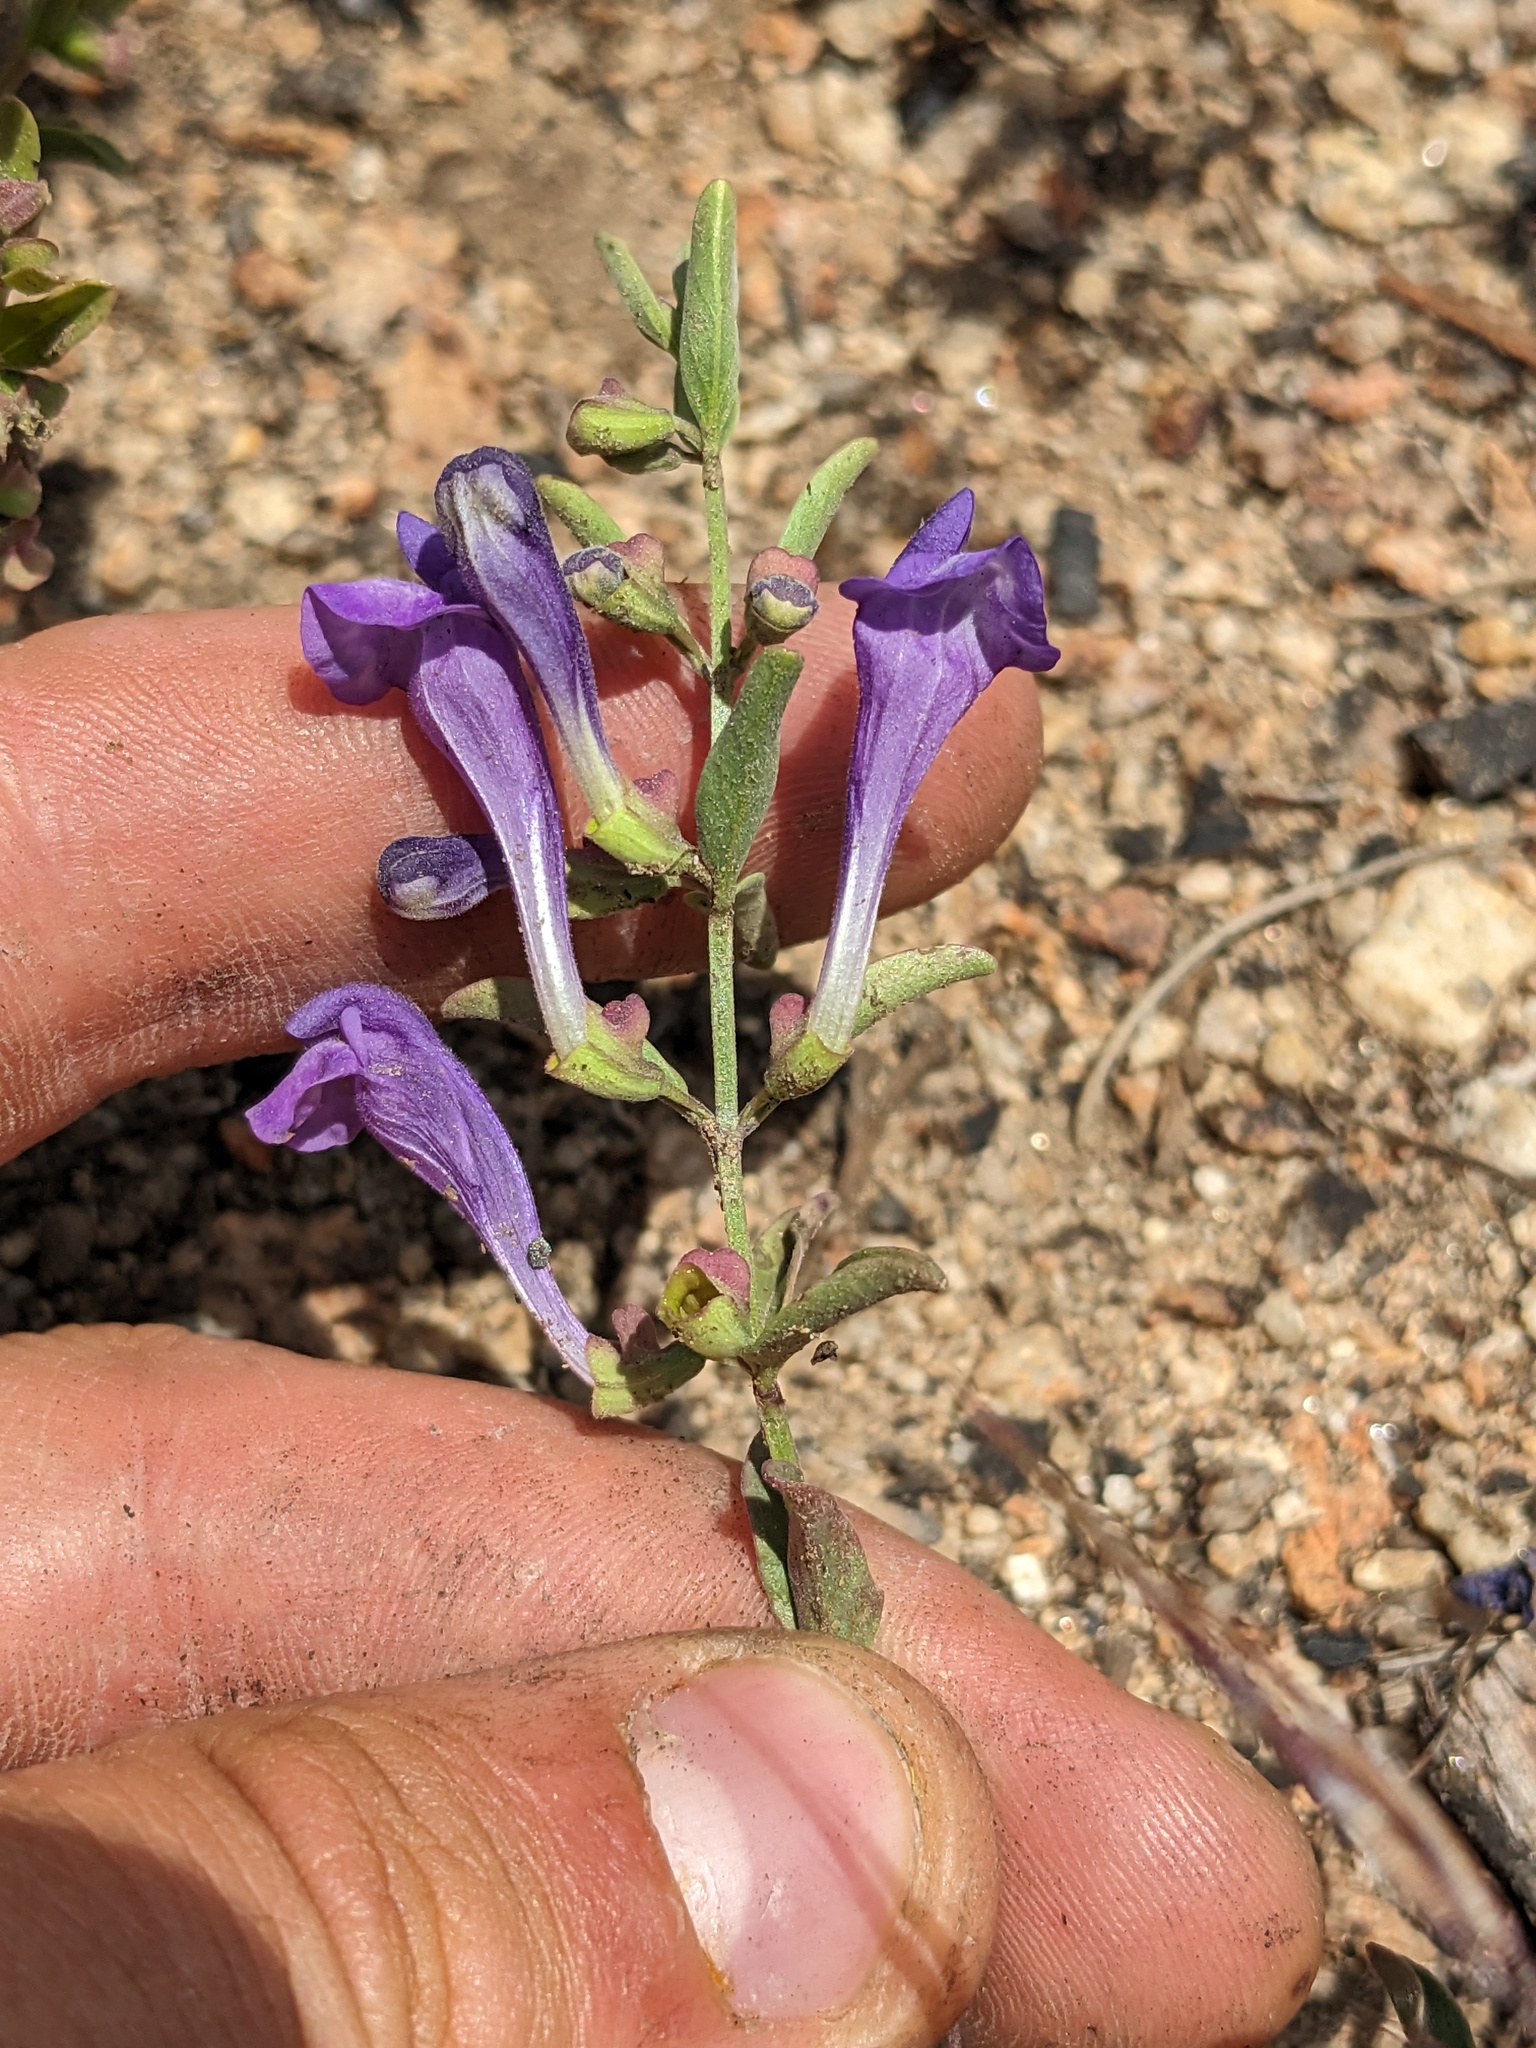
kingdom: Plantae
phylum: Tracheophyta
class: Magnoliopsida
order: Lamiales
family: Lamiaceae
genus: Scutellaria
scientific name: Scutellaria siphocampyloides
